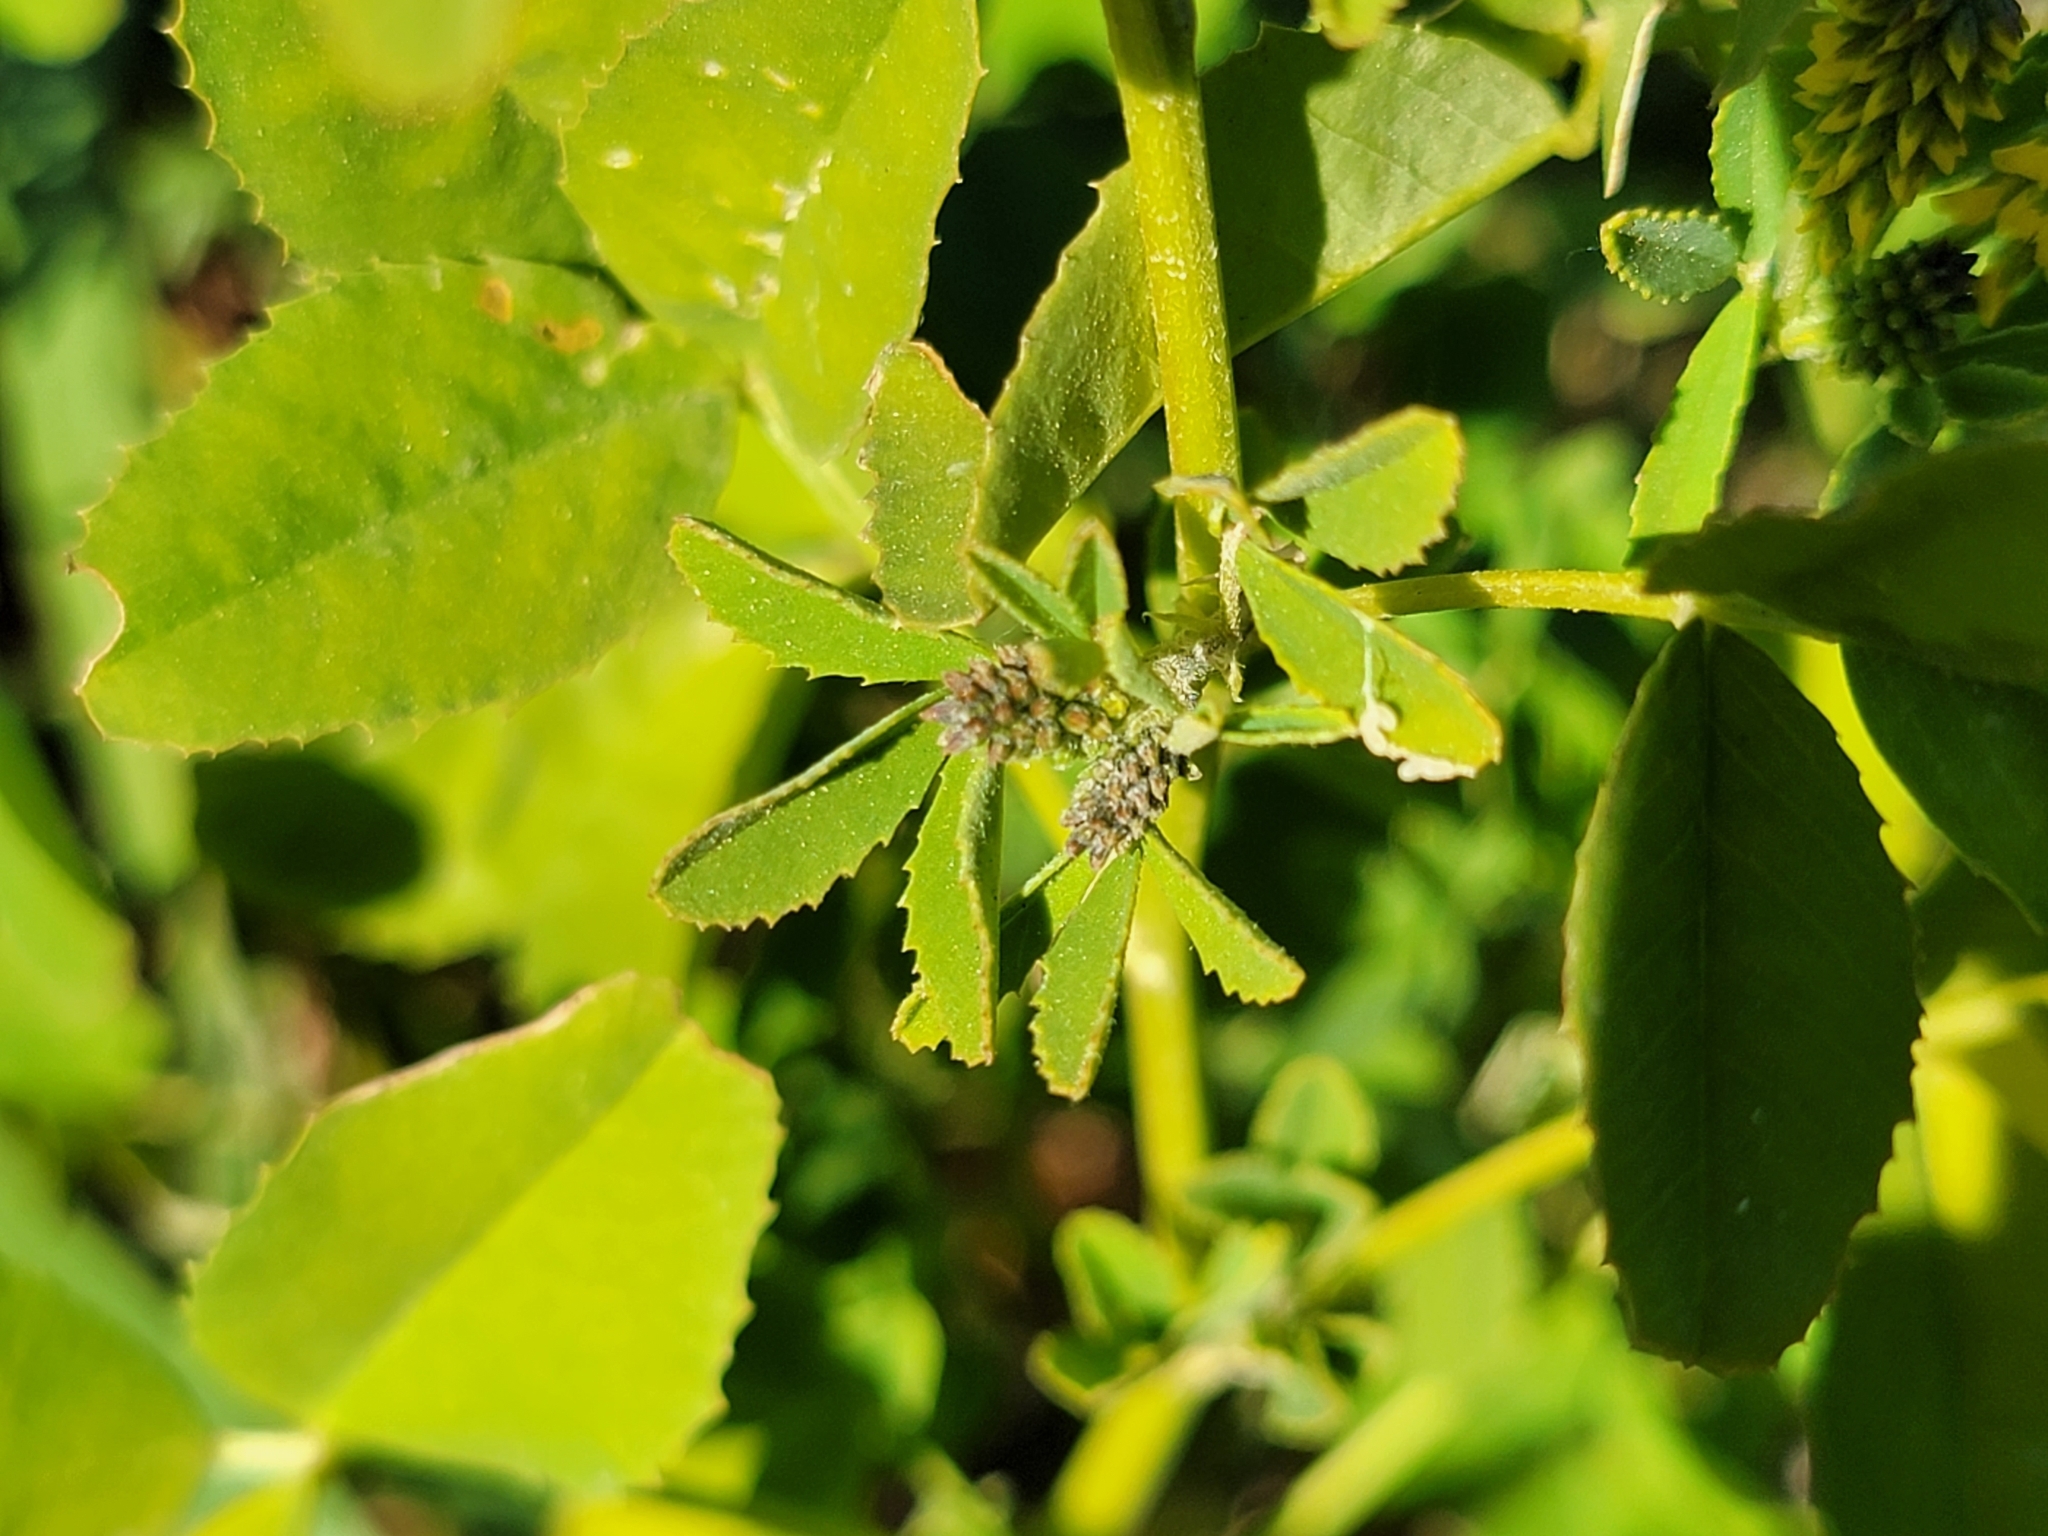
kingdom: Plantae
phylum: Tracheophyta
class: Magnoliopsida
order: Fabales
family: Fabaceae
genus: Melilotus
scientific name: Melilotus indicus
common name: Small melilot
